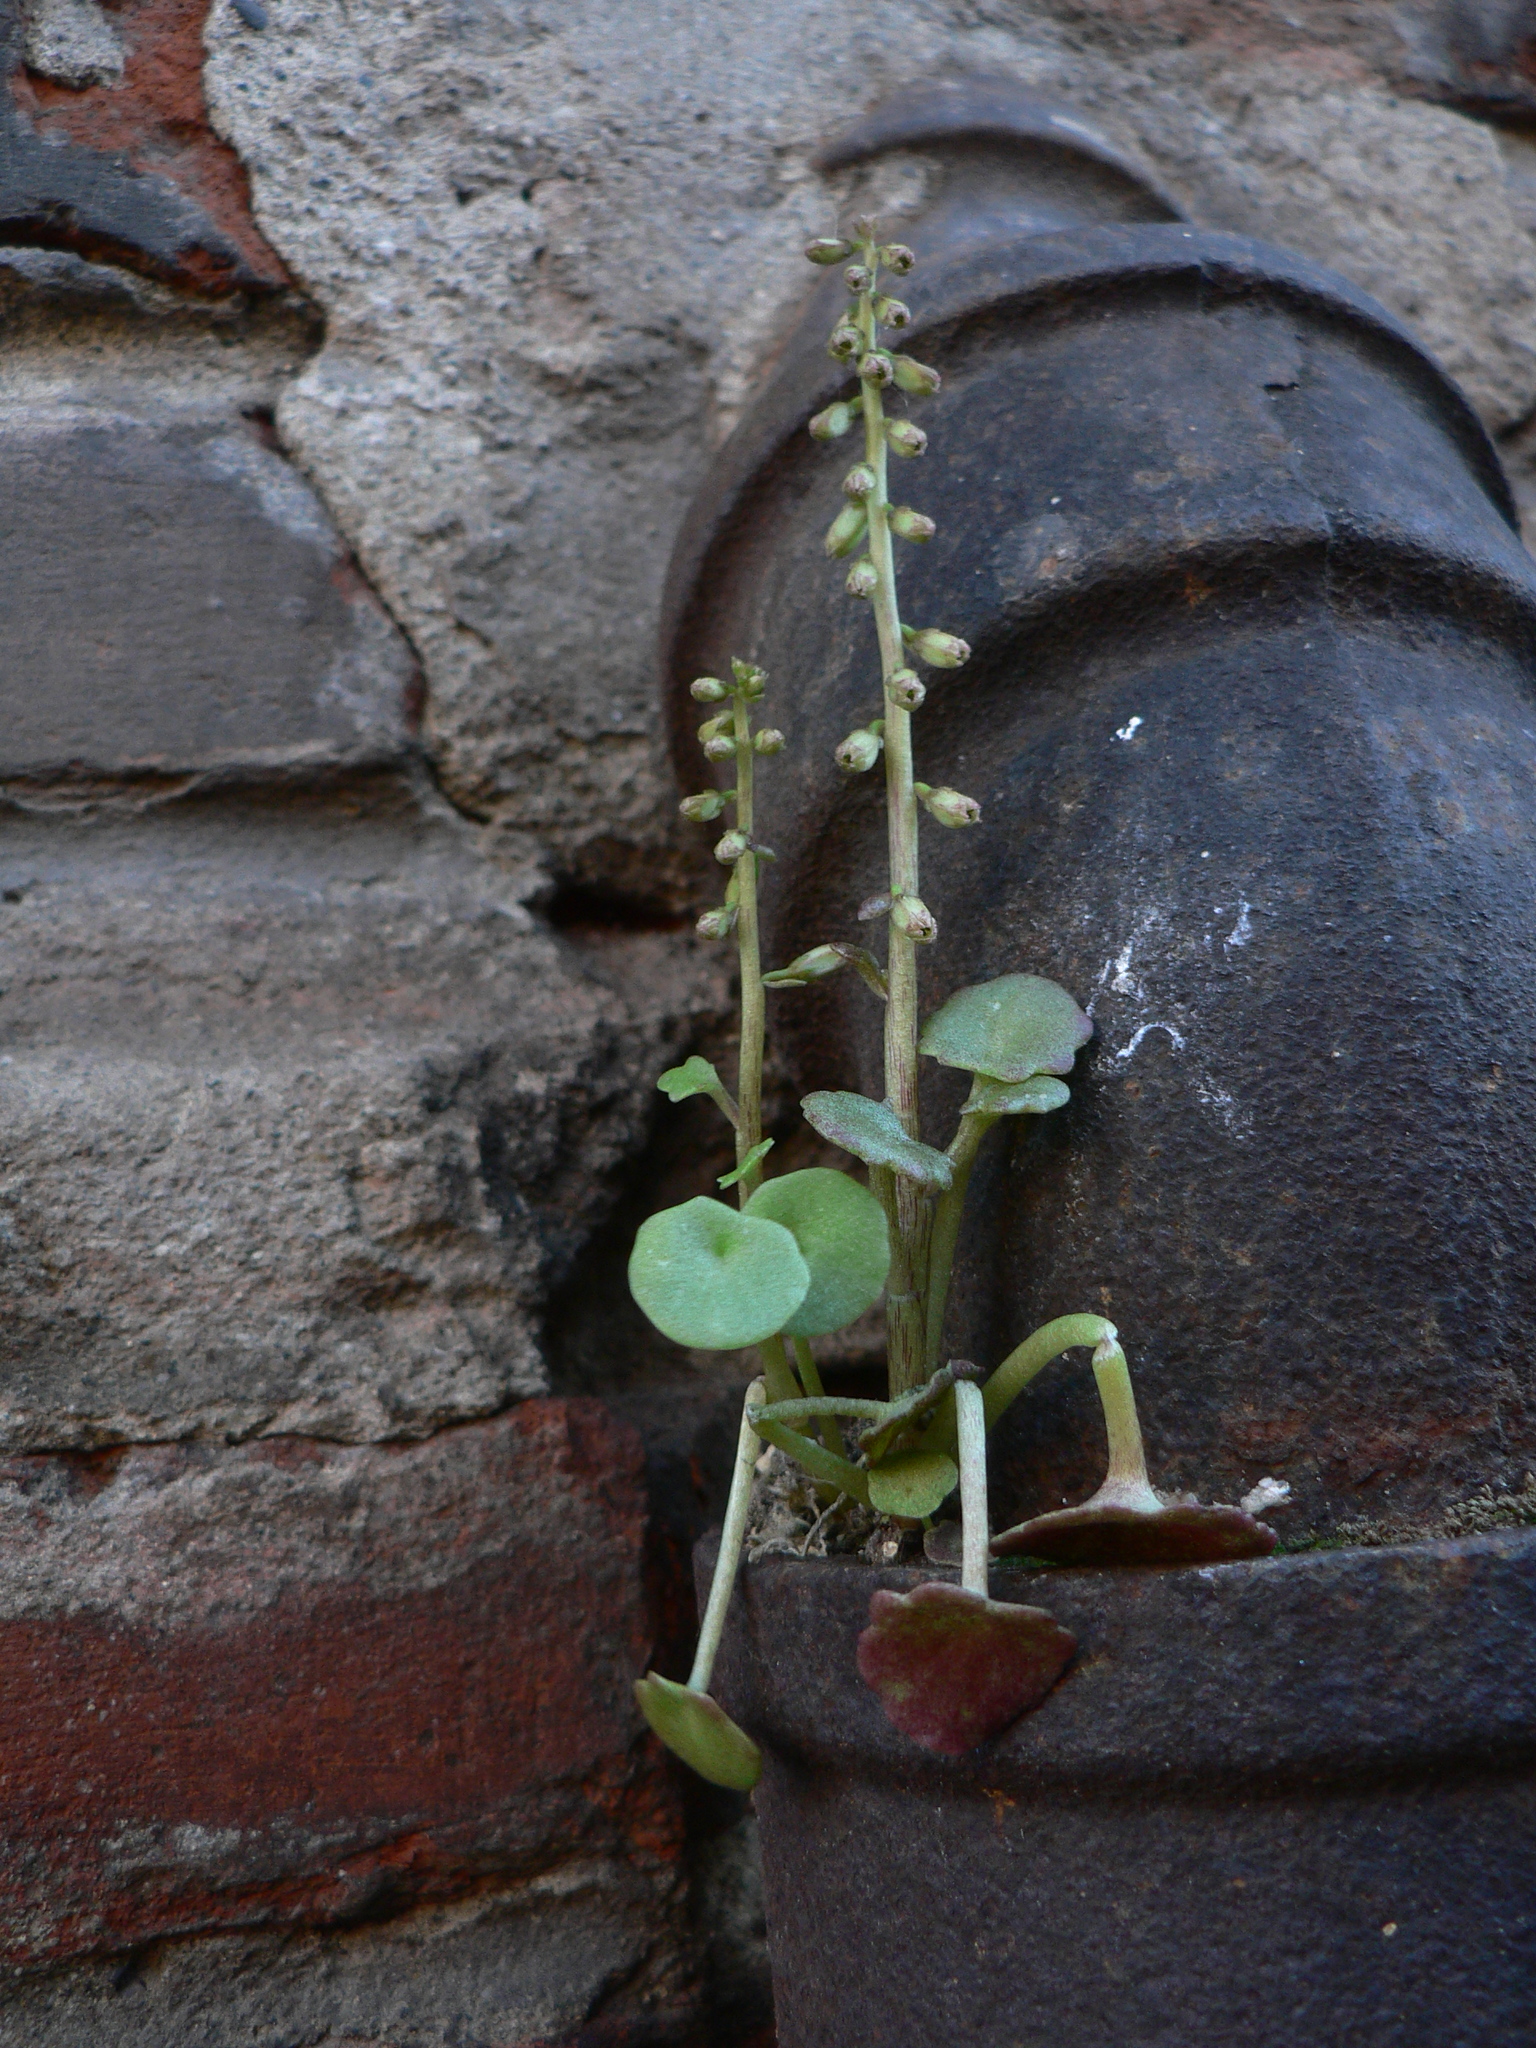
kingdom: Plantae
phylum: Tracheophyta
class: Magnoliopsida
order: Saxifragales
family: Crassulaceae
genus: Umbilicus
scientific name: Umbilicus rupestris
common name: Navelwort
